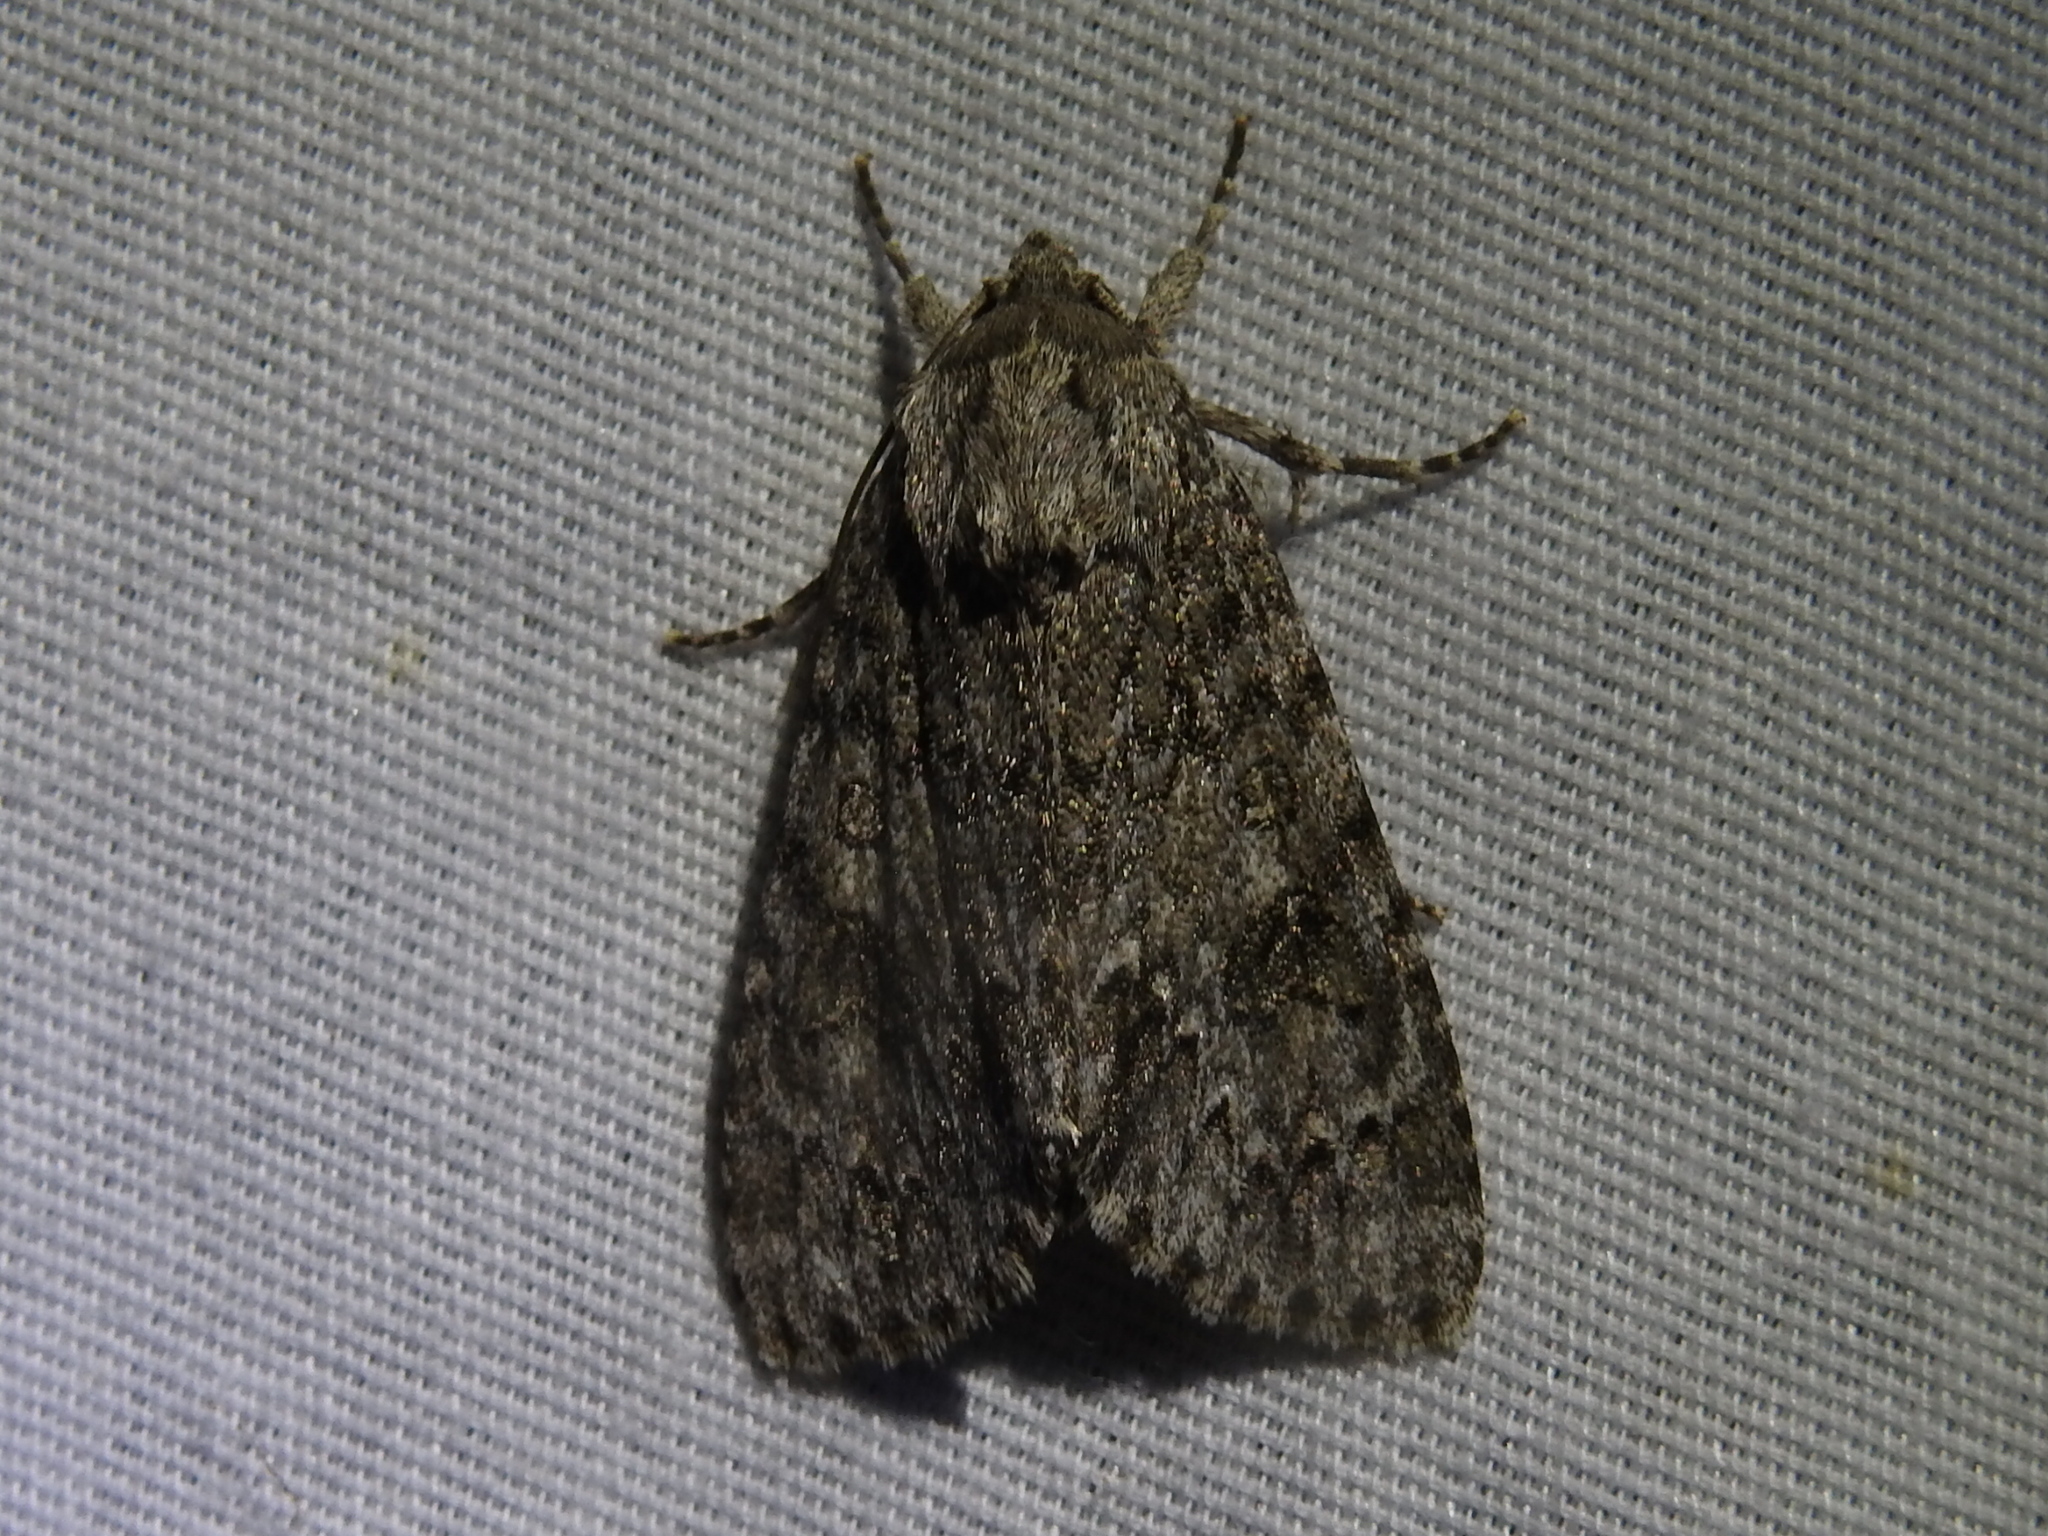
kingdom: Animalia
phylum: Arthropoda
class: Insecta
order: Lepidoptera
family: Noctuidae
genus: Acronicta
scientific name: Acronicta rubricoma
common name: Hackberry dagger
